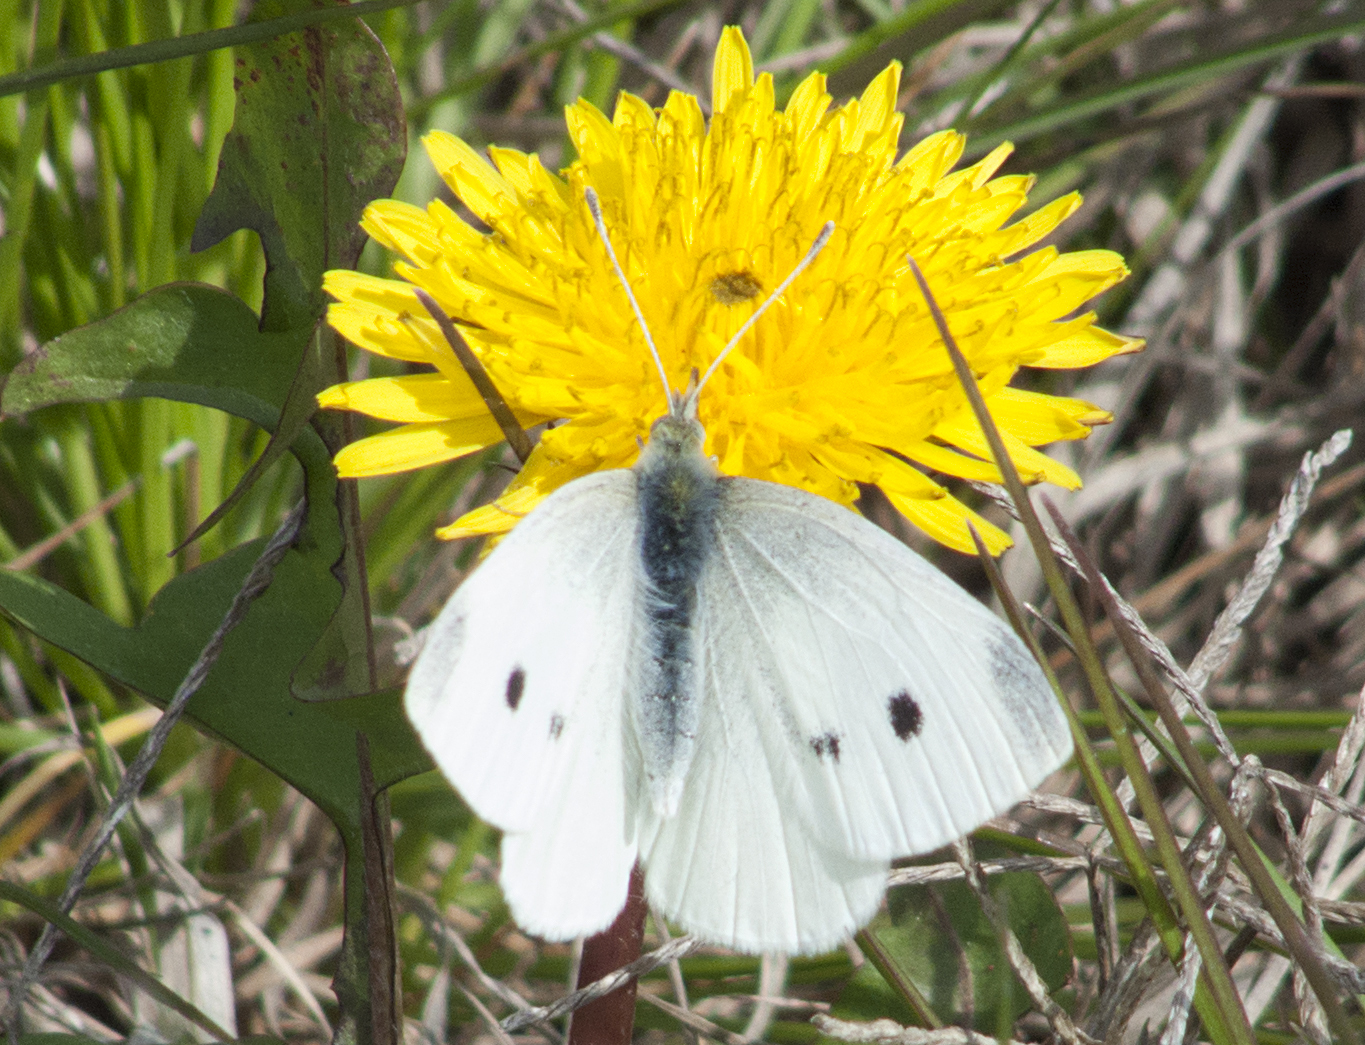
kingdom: Animalia
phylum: Arthropoda
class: Insecta
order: Lepidoptera
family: Pieridae
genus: Pieris
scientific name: Pieris rapae
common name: Small white
